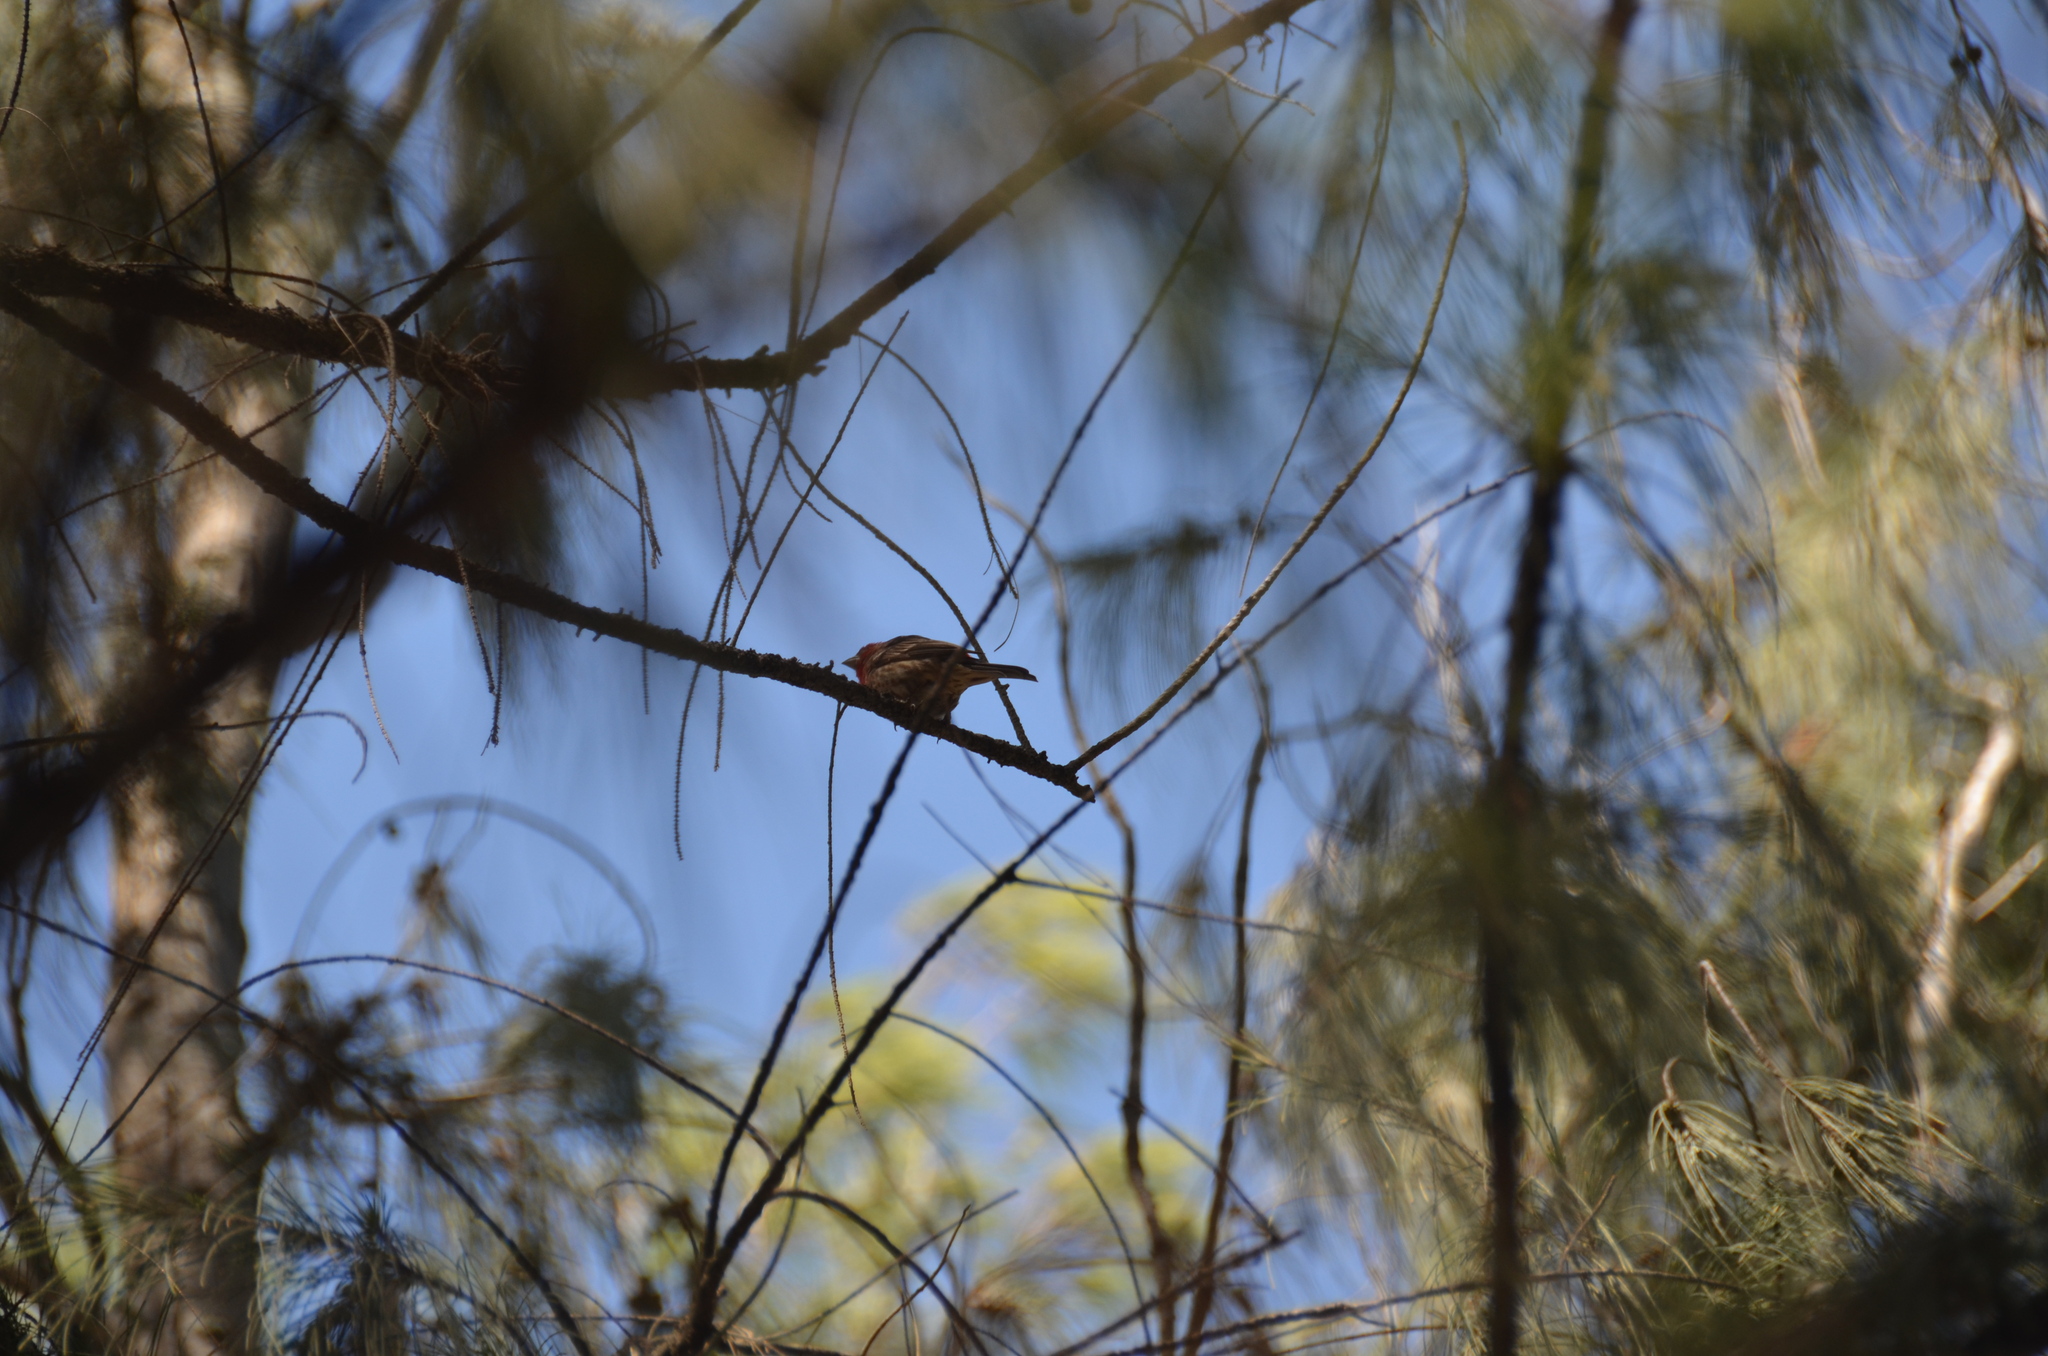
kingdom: Animalia
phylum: Chordata
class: Aves
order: Passeriformes
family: Fringillidae
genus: Haemorhous
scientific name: Haemorhous mexicanus
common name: House finch
